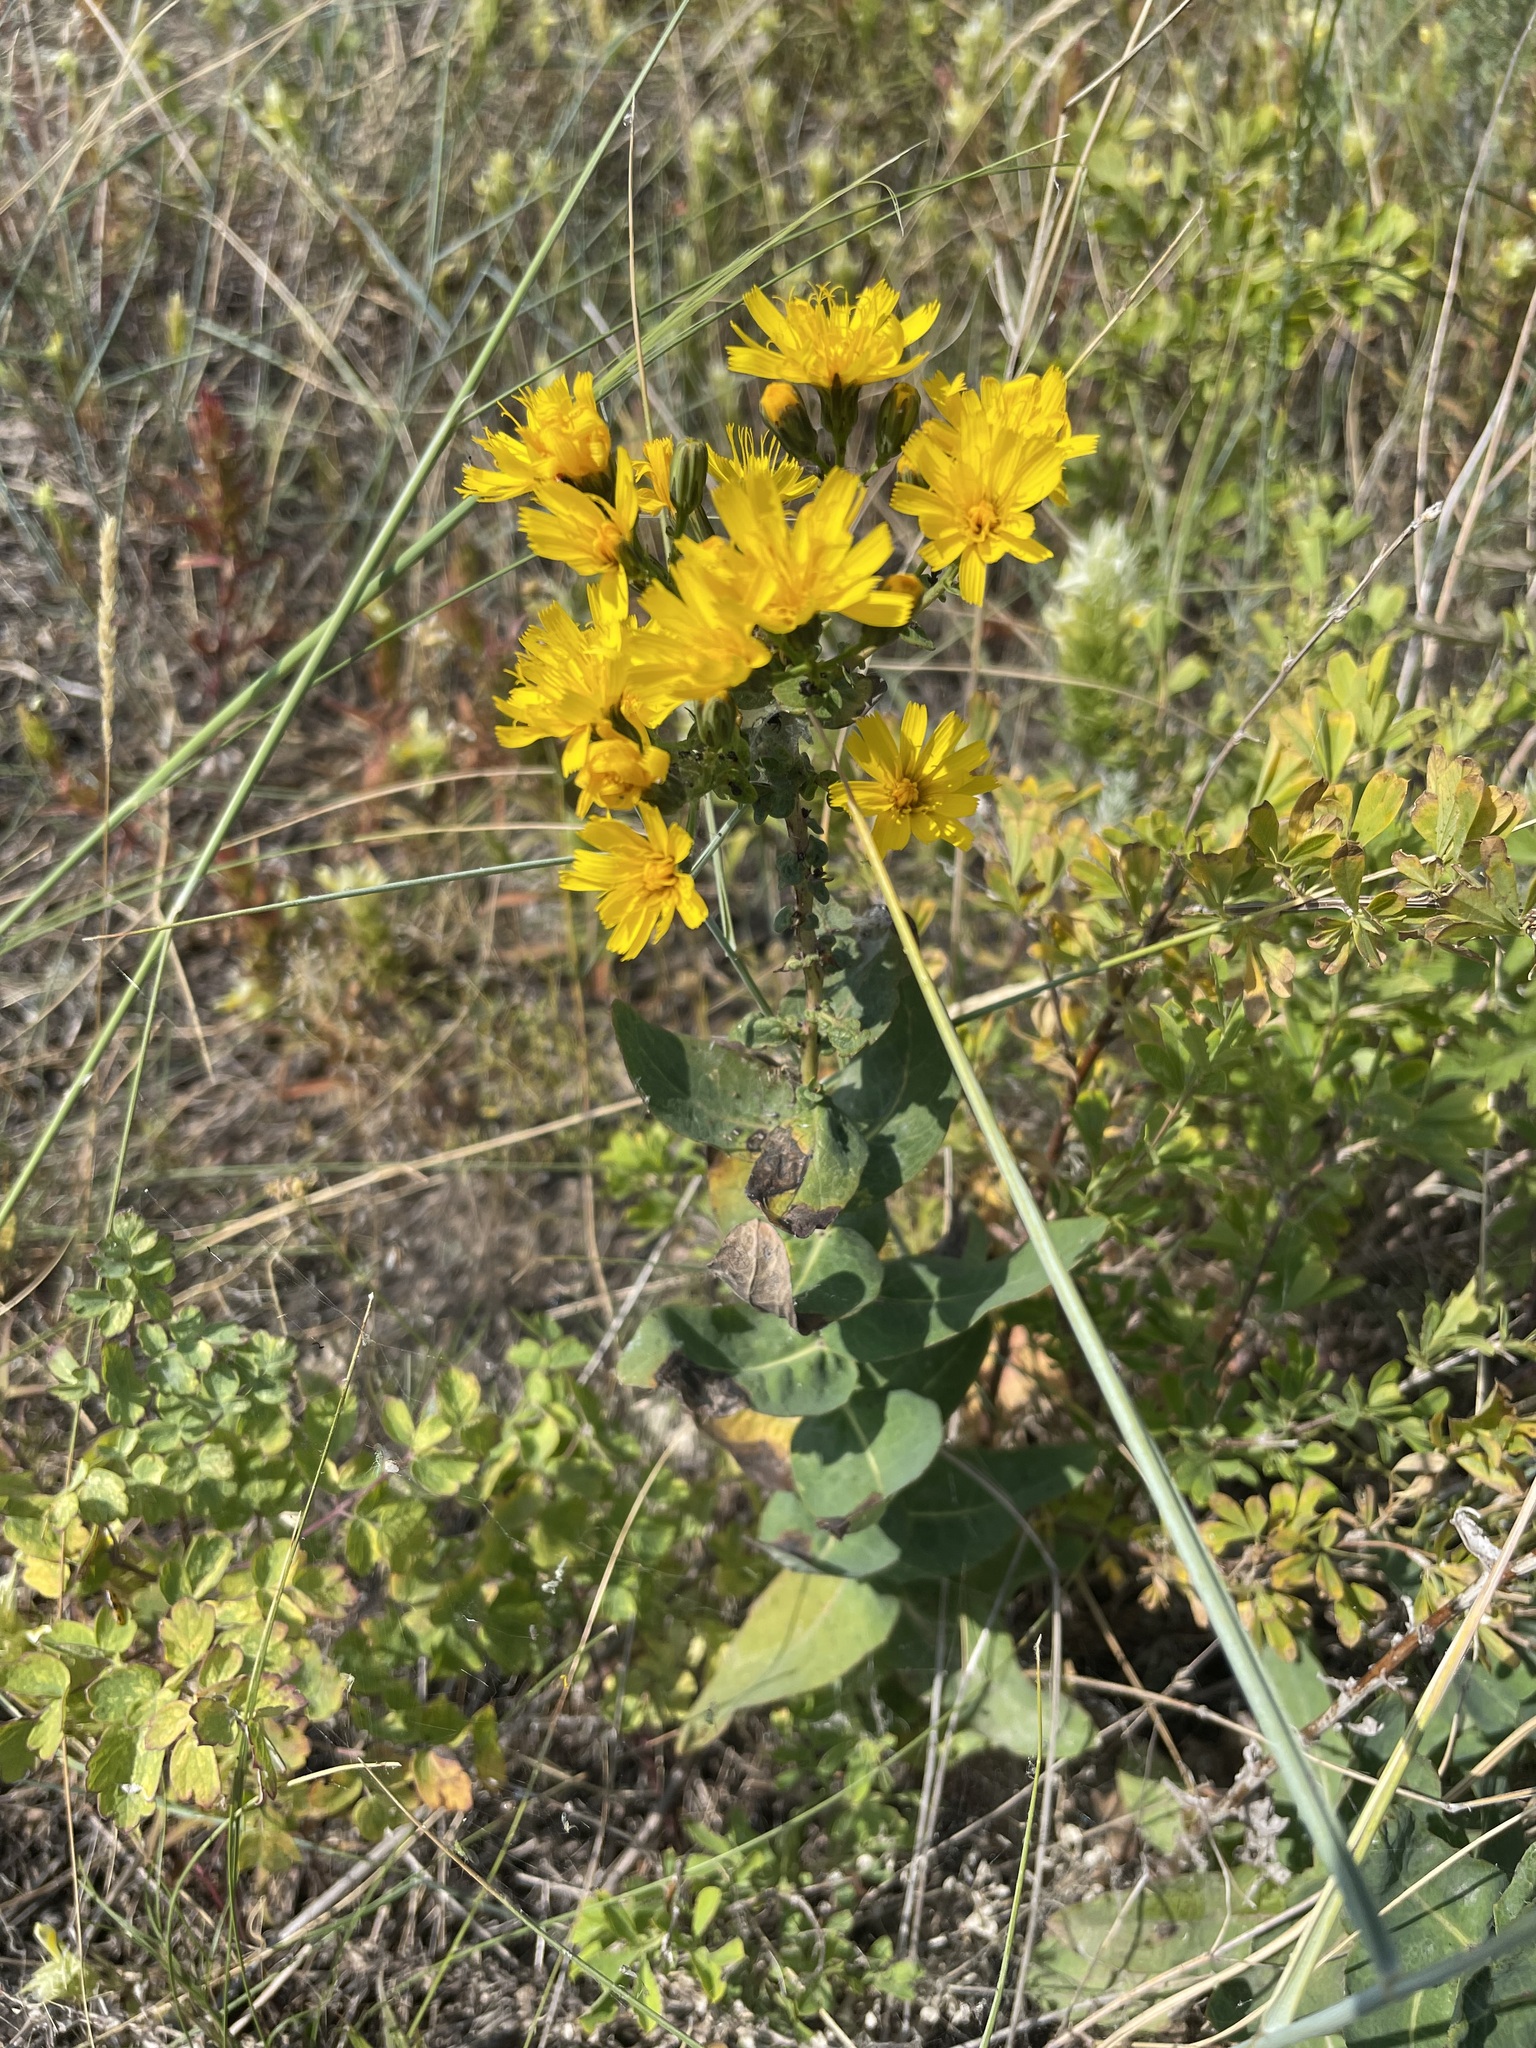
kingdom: Plantae
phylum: Tracheophyta
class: Magnoliopsida
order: Asterales
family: Asteraceae
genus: Hieracium
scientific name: Hieracium virosum
